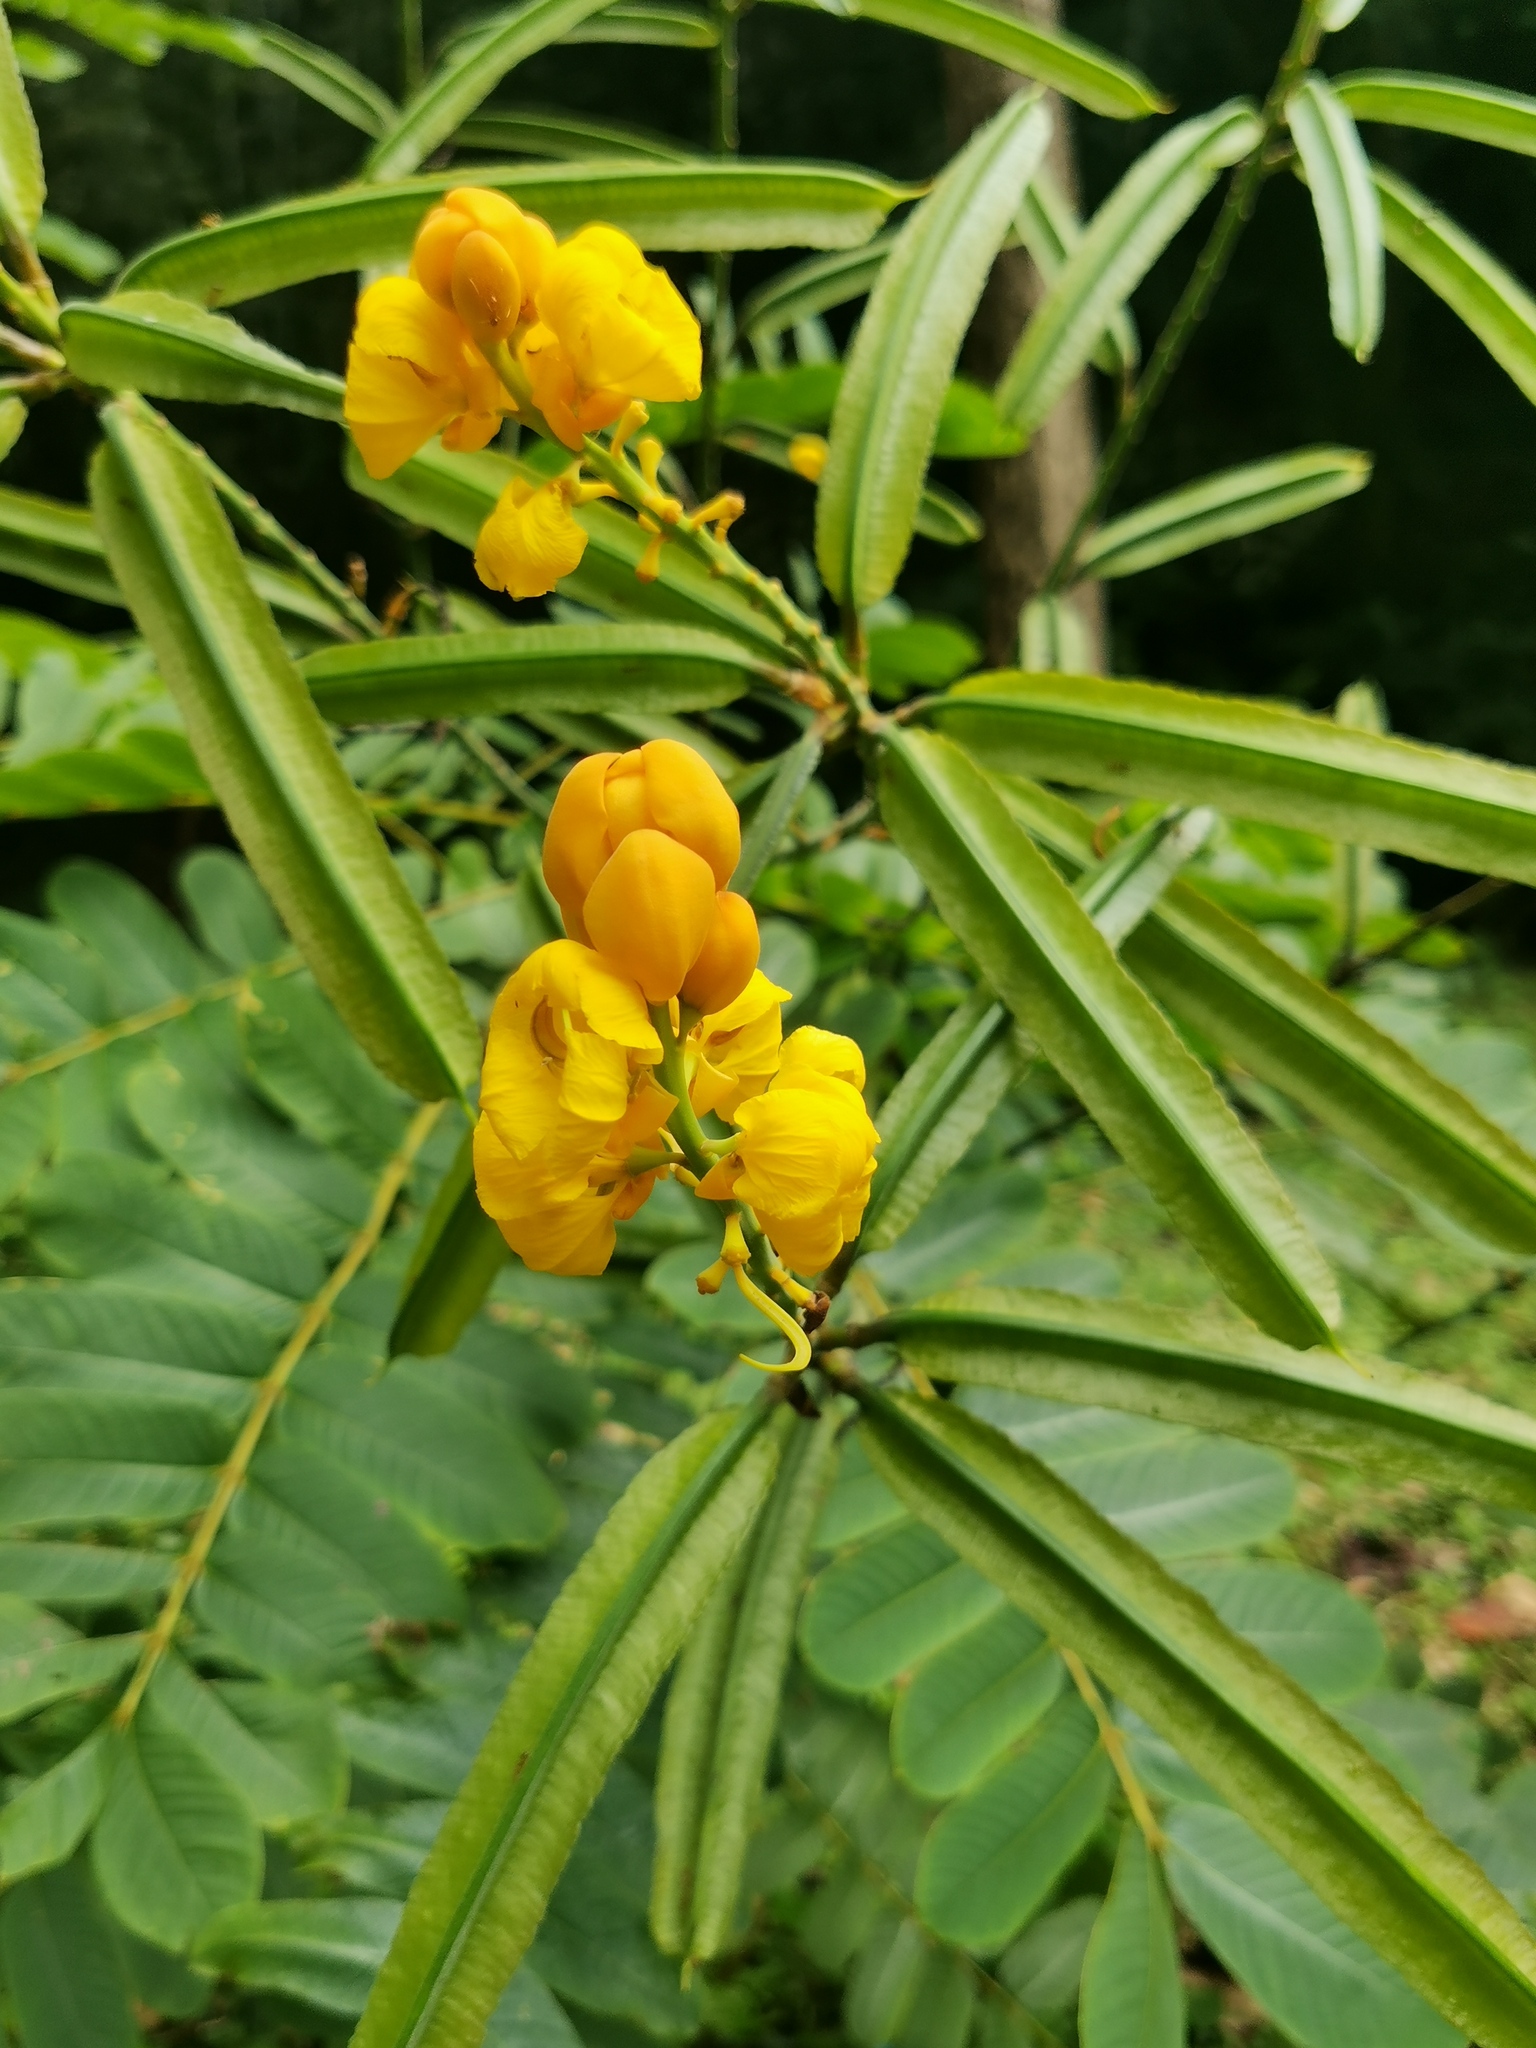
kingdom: Plantae
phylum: Tracheophyta
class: Magnoliopsida
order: Fabales
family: Fabaceae
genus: Senna
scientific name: Senna alata
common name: Emperor's candlesticks
